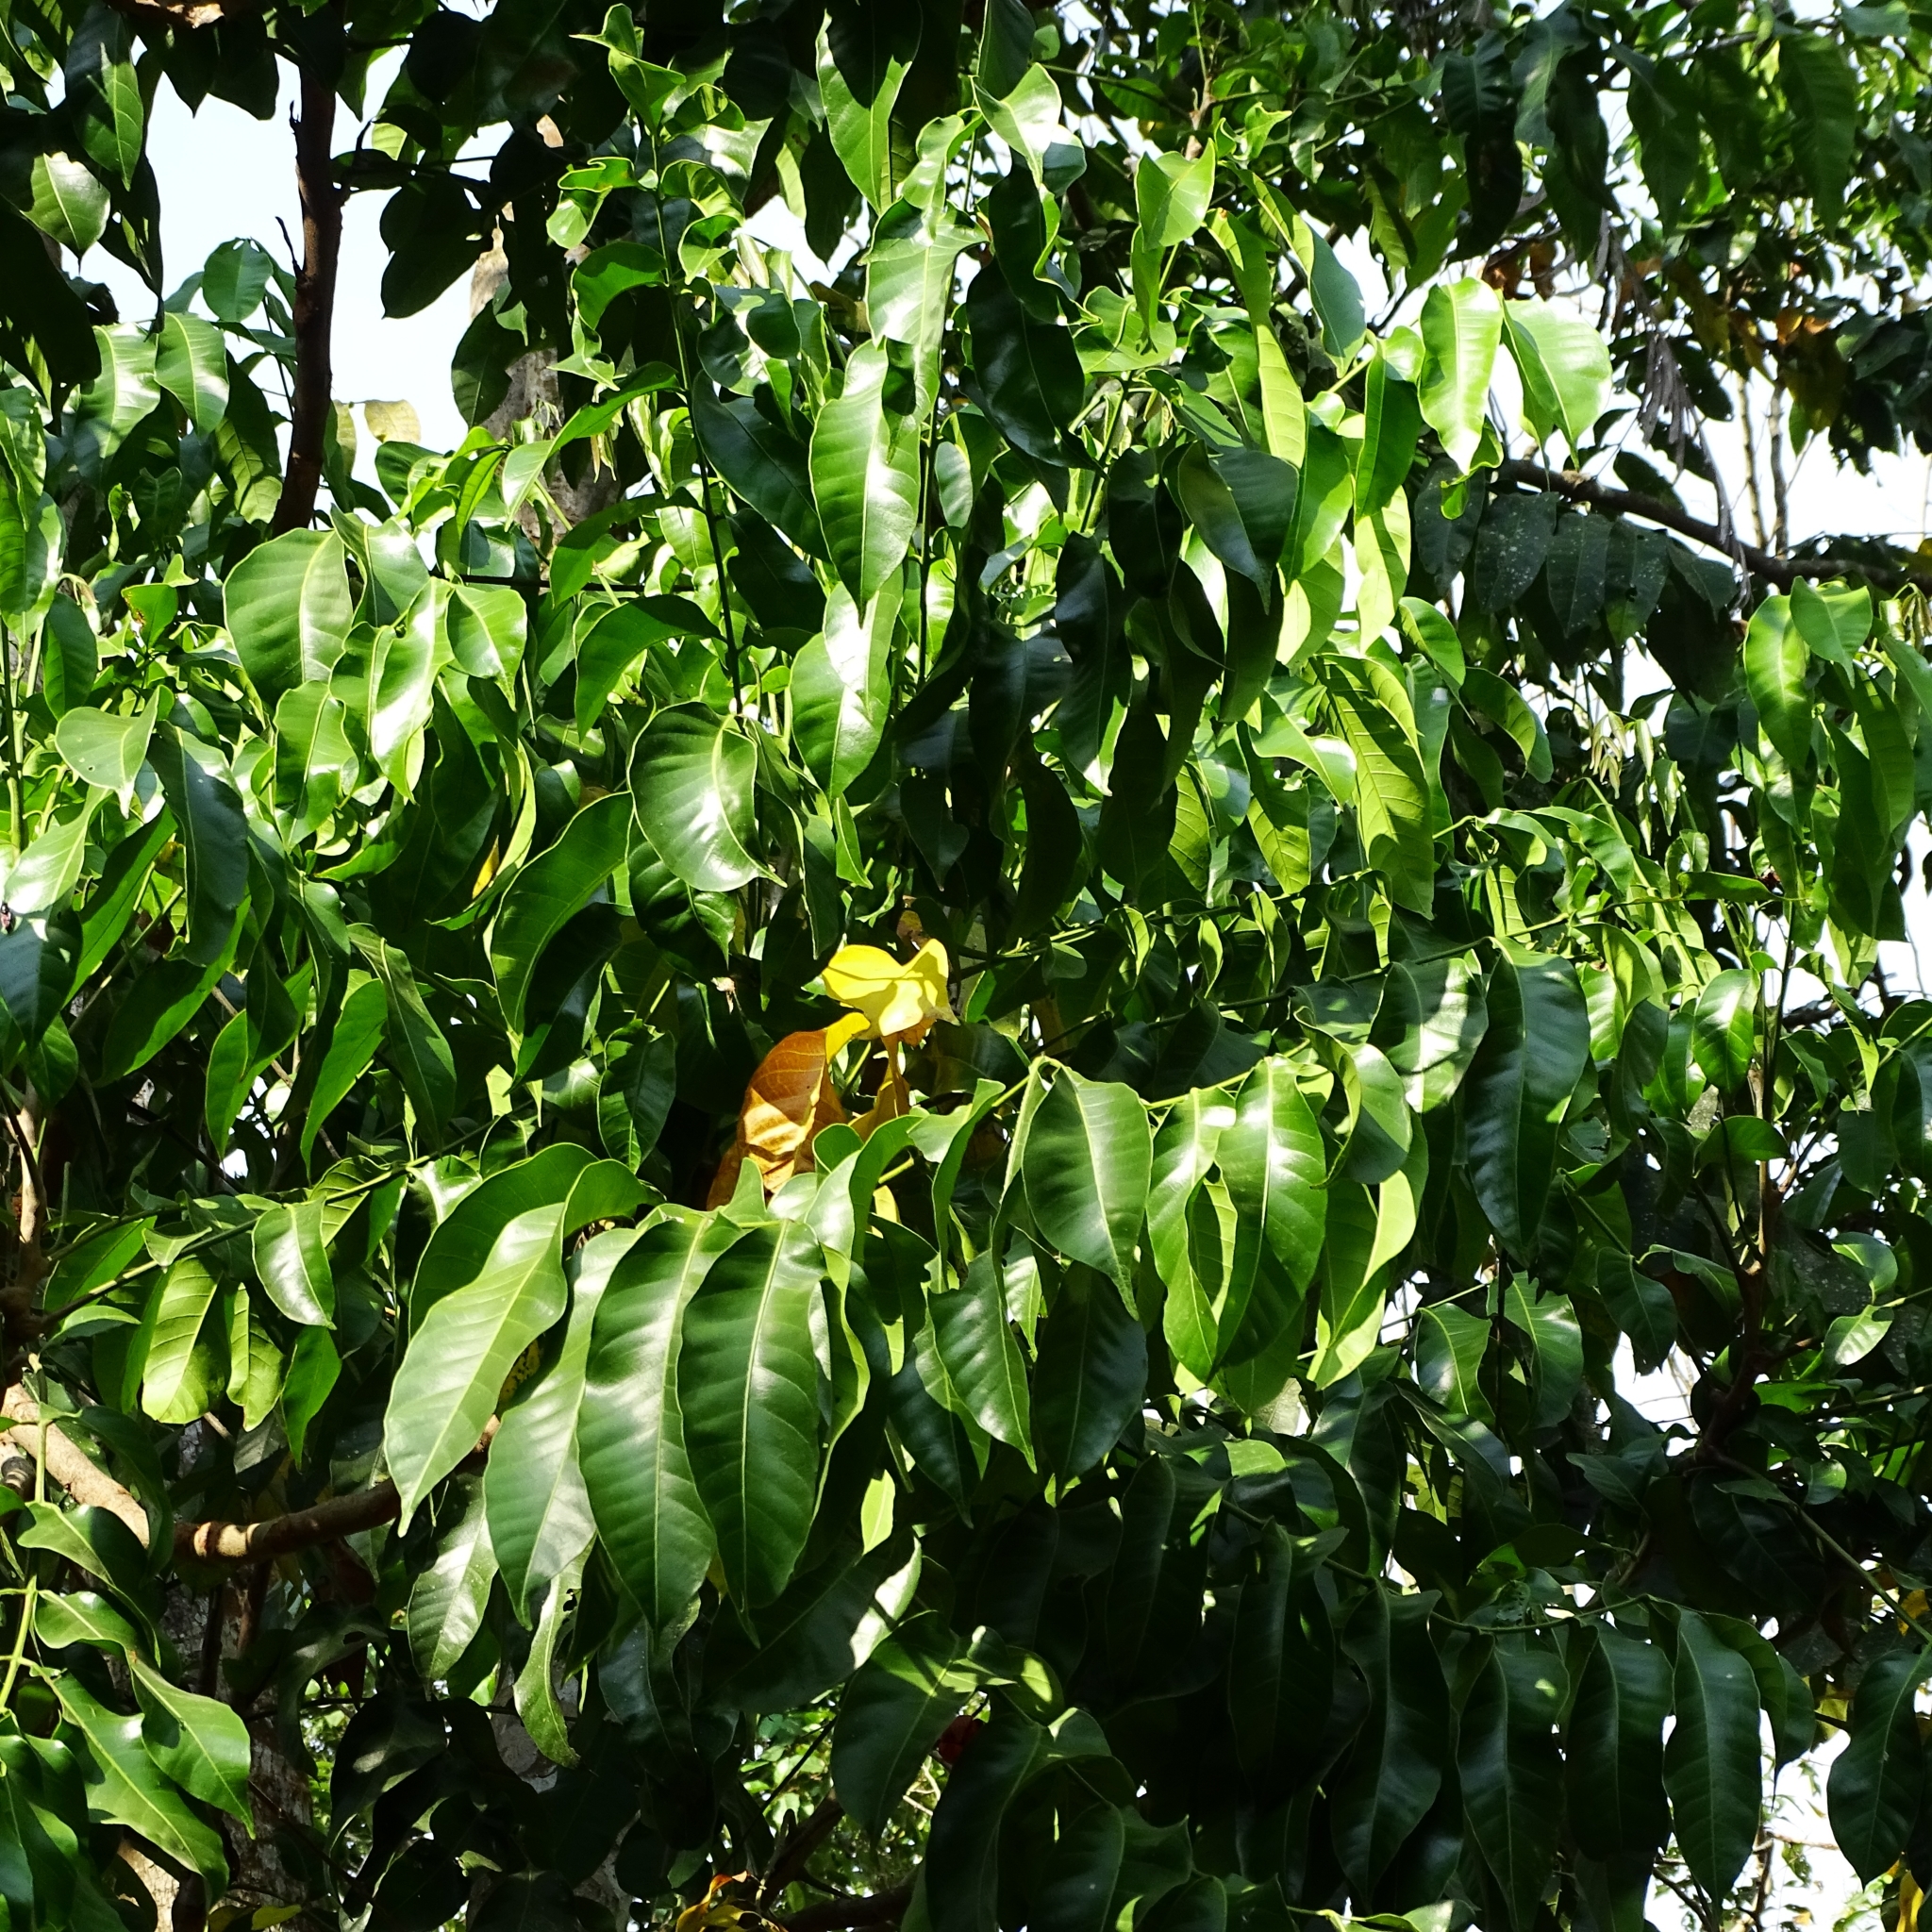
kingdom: Plantae
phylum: Tracheophyta
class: Magnoliopsida
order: Sapindales
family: Meliaceae
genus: Aphanamixis
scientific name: Aphanamixis polystachya
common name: Pithraj tree
